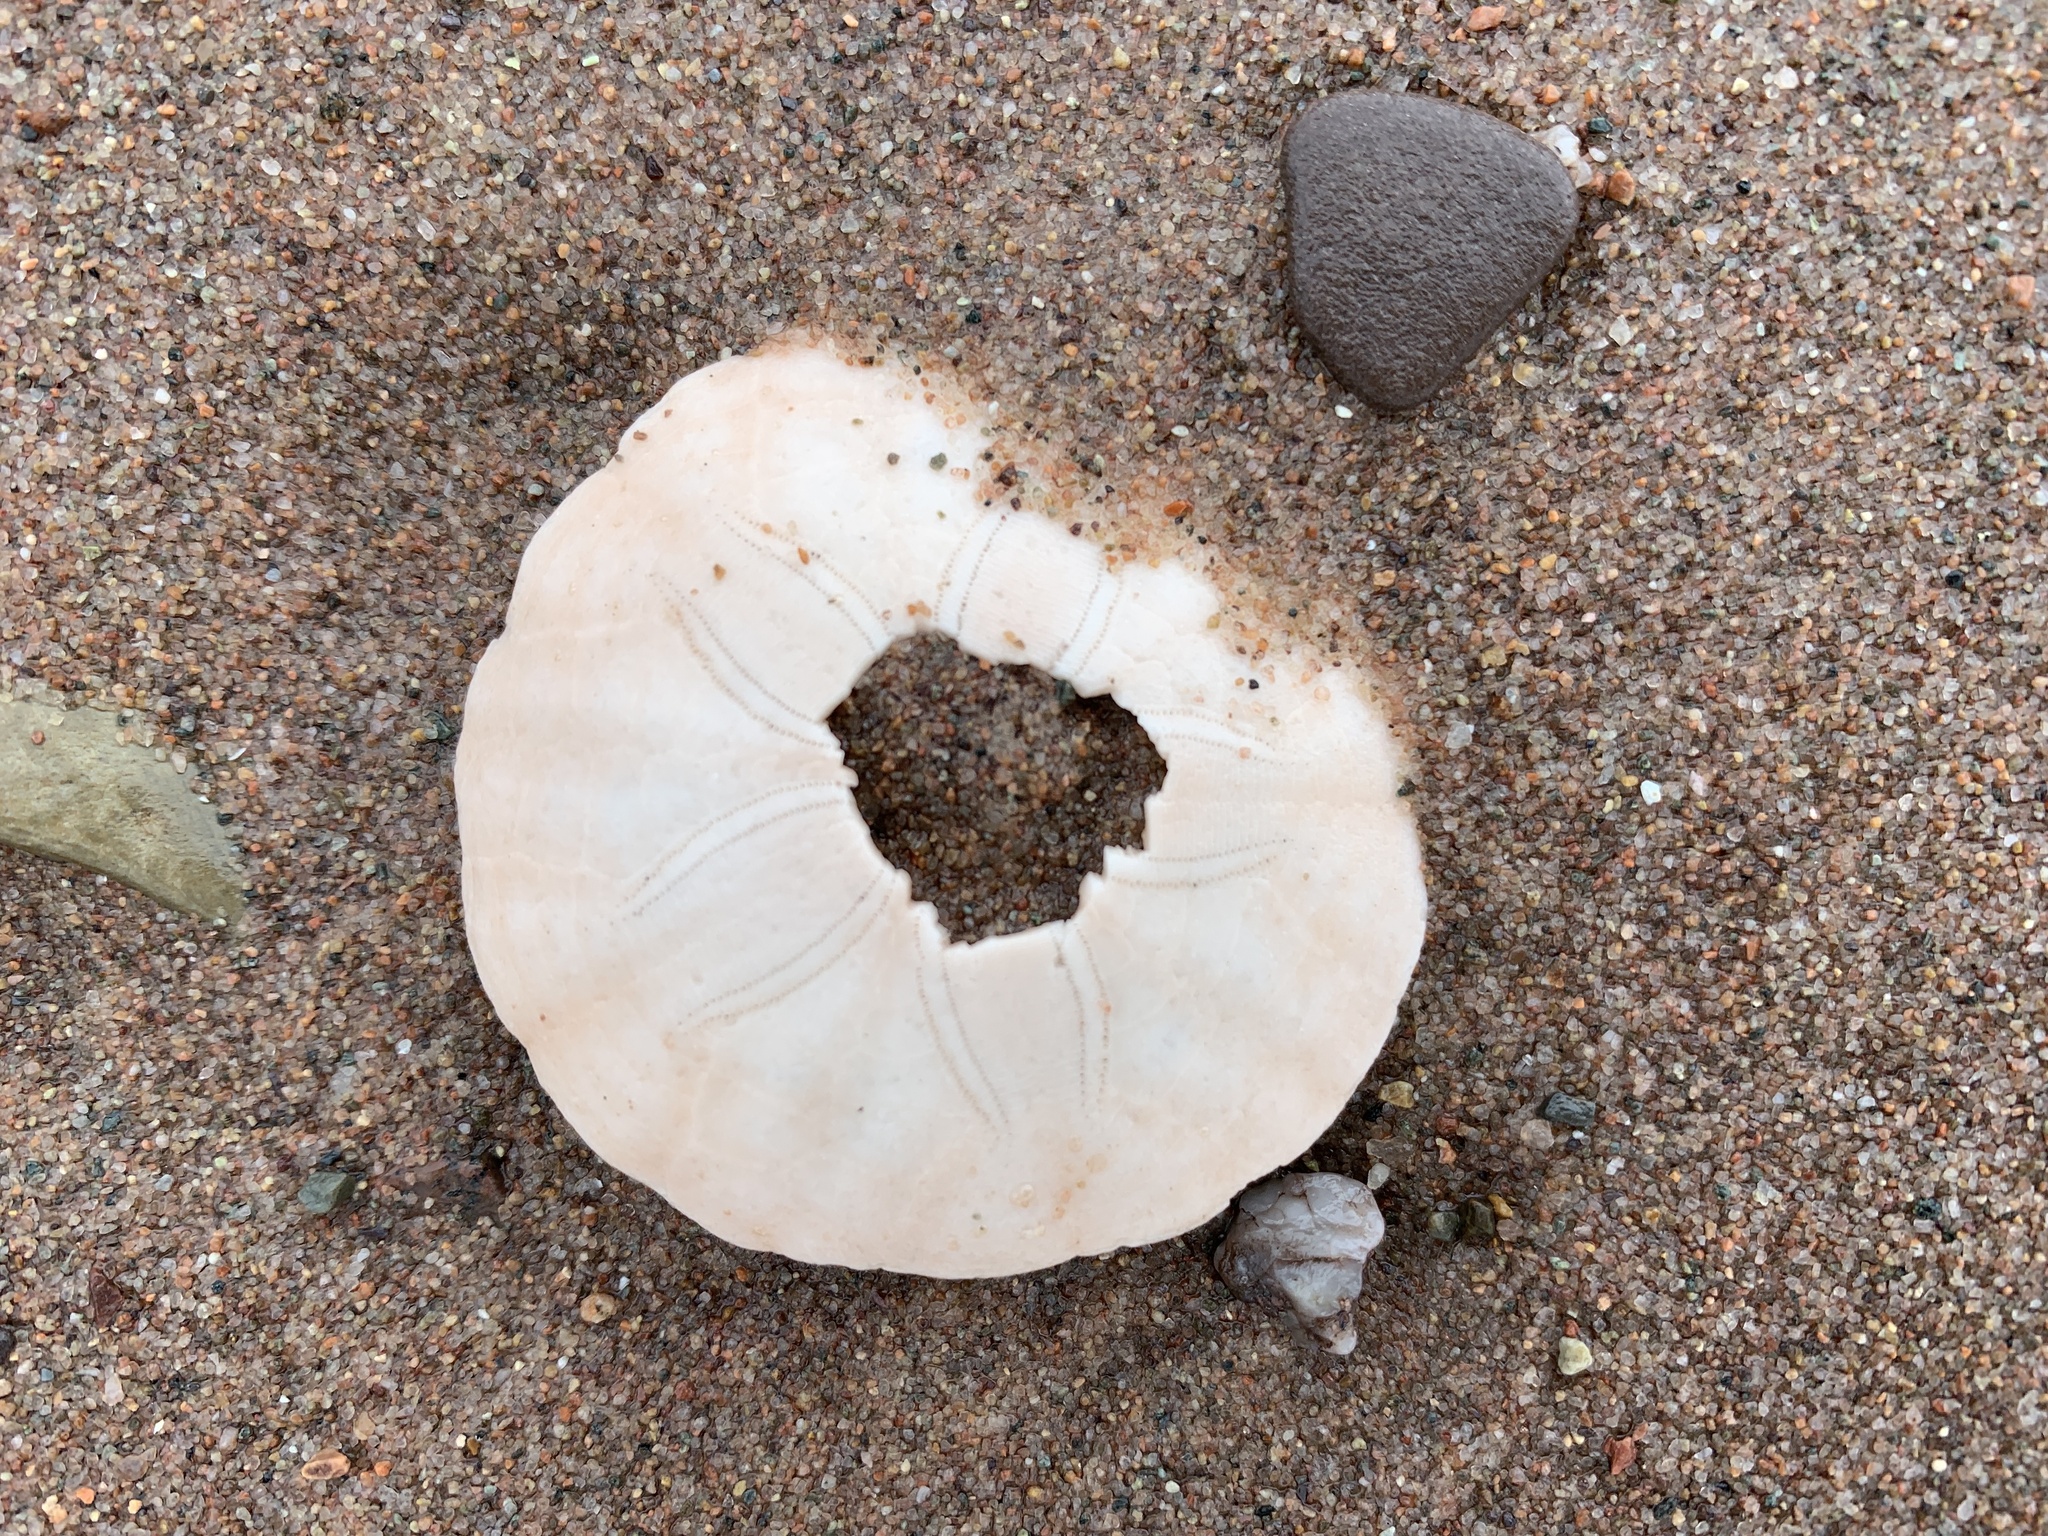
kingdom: Animalia
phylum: Echinodermata
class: Echinoidea
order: Echinolampadacea
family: Echinarachniidae
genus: Echinarachnius
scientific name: Echinarachnius parma
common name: Common sand dollar
